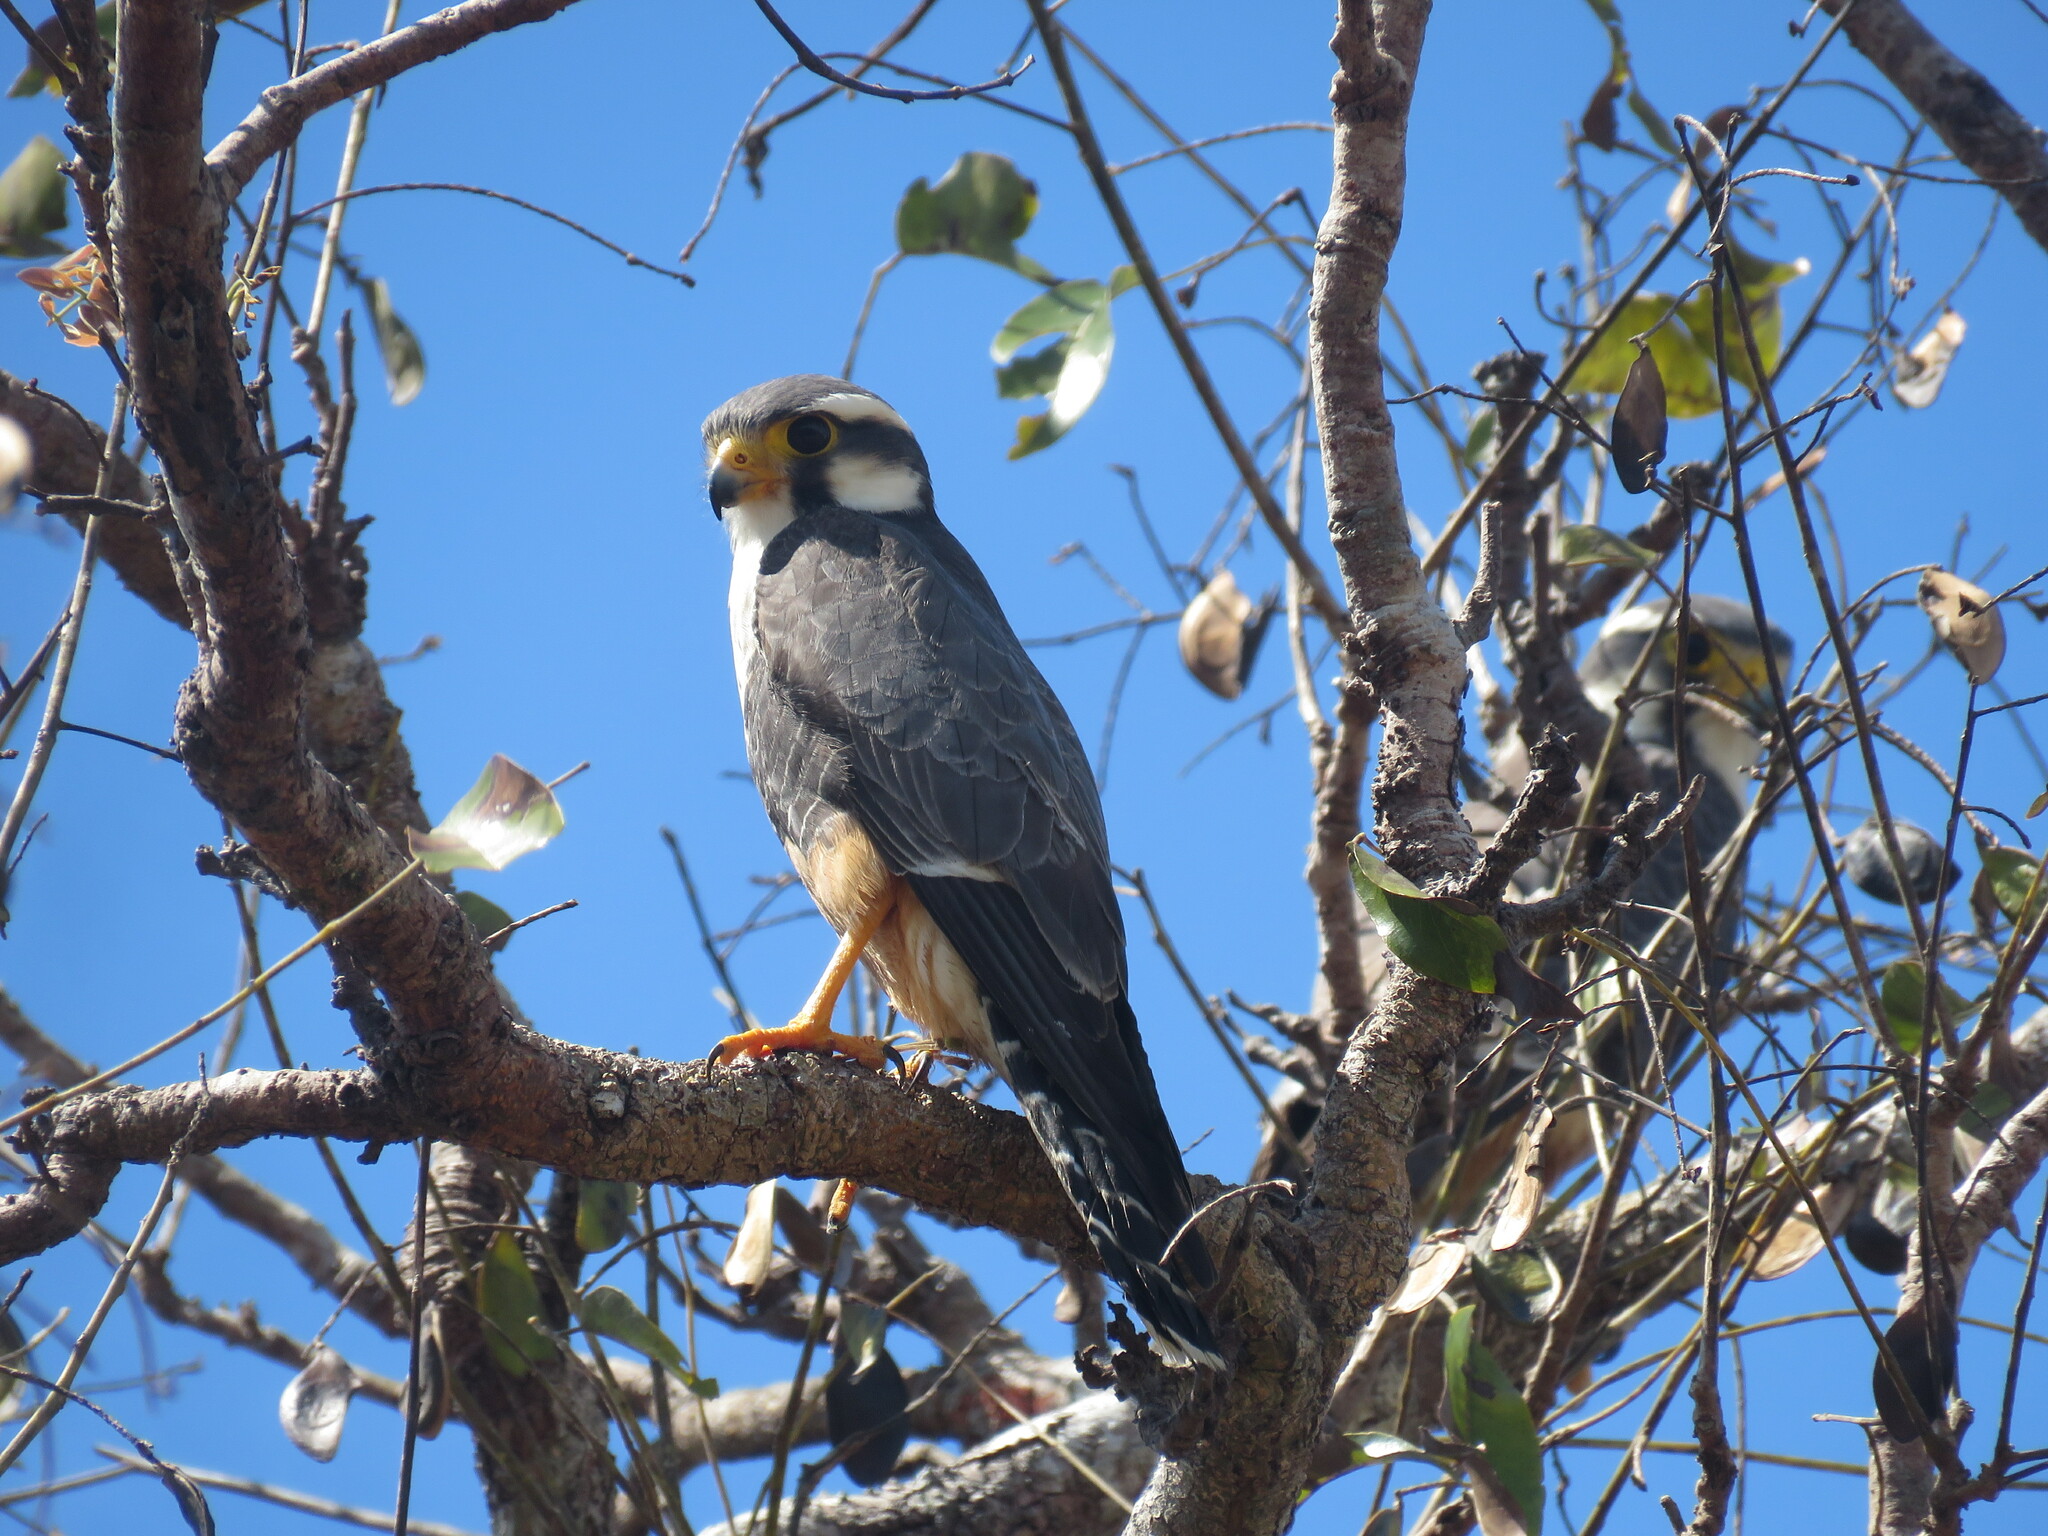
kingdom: Animalia
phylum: Chordata
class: Aves
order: Falconiformes
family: Falconidae
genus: Falco
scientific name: Falco femoralis
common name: Aplomado falcon
